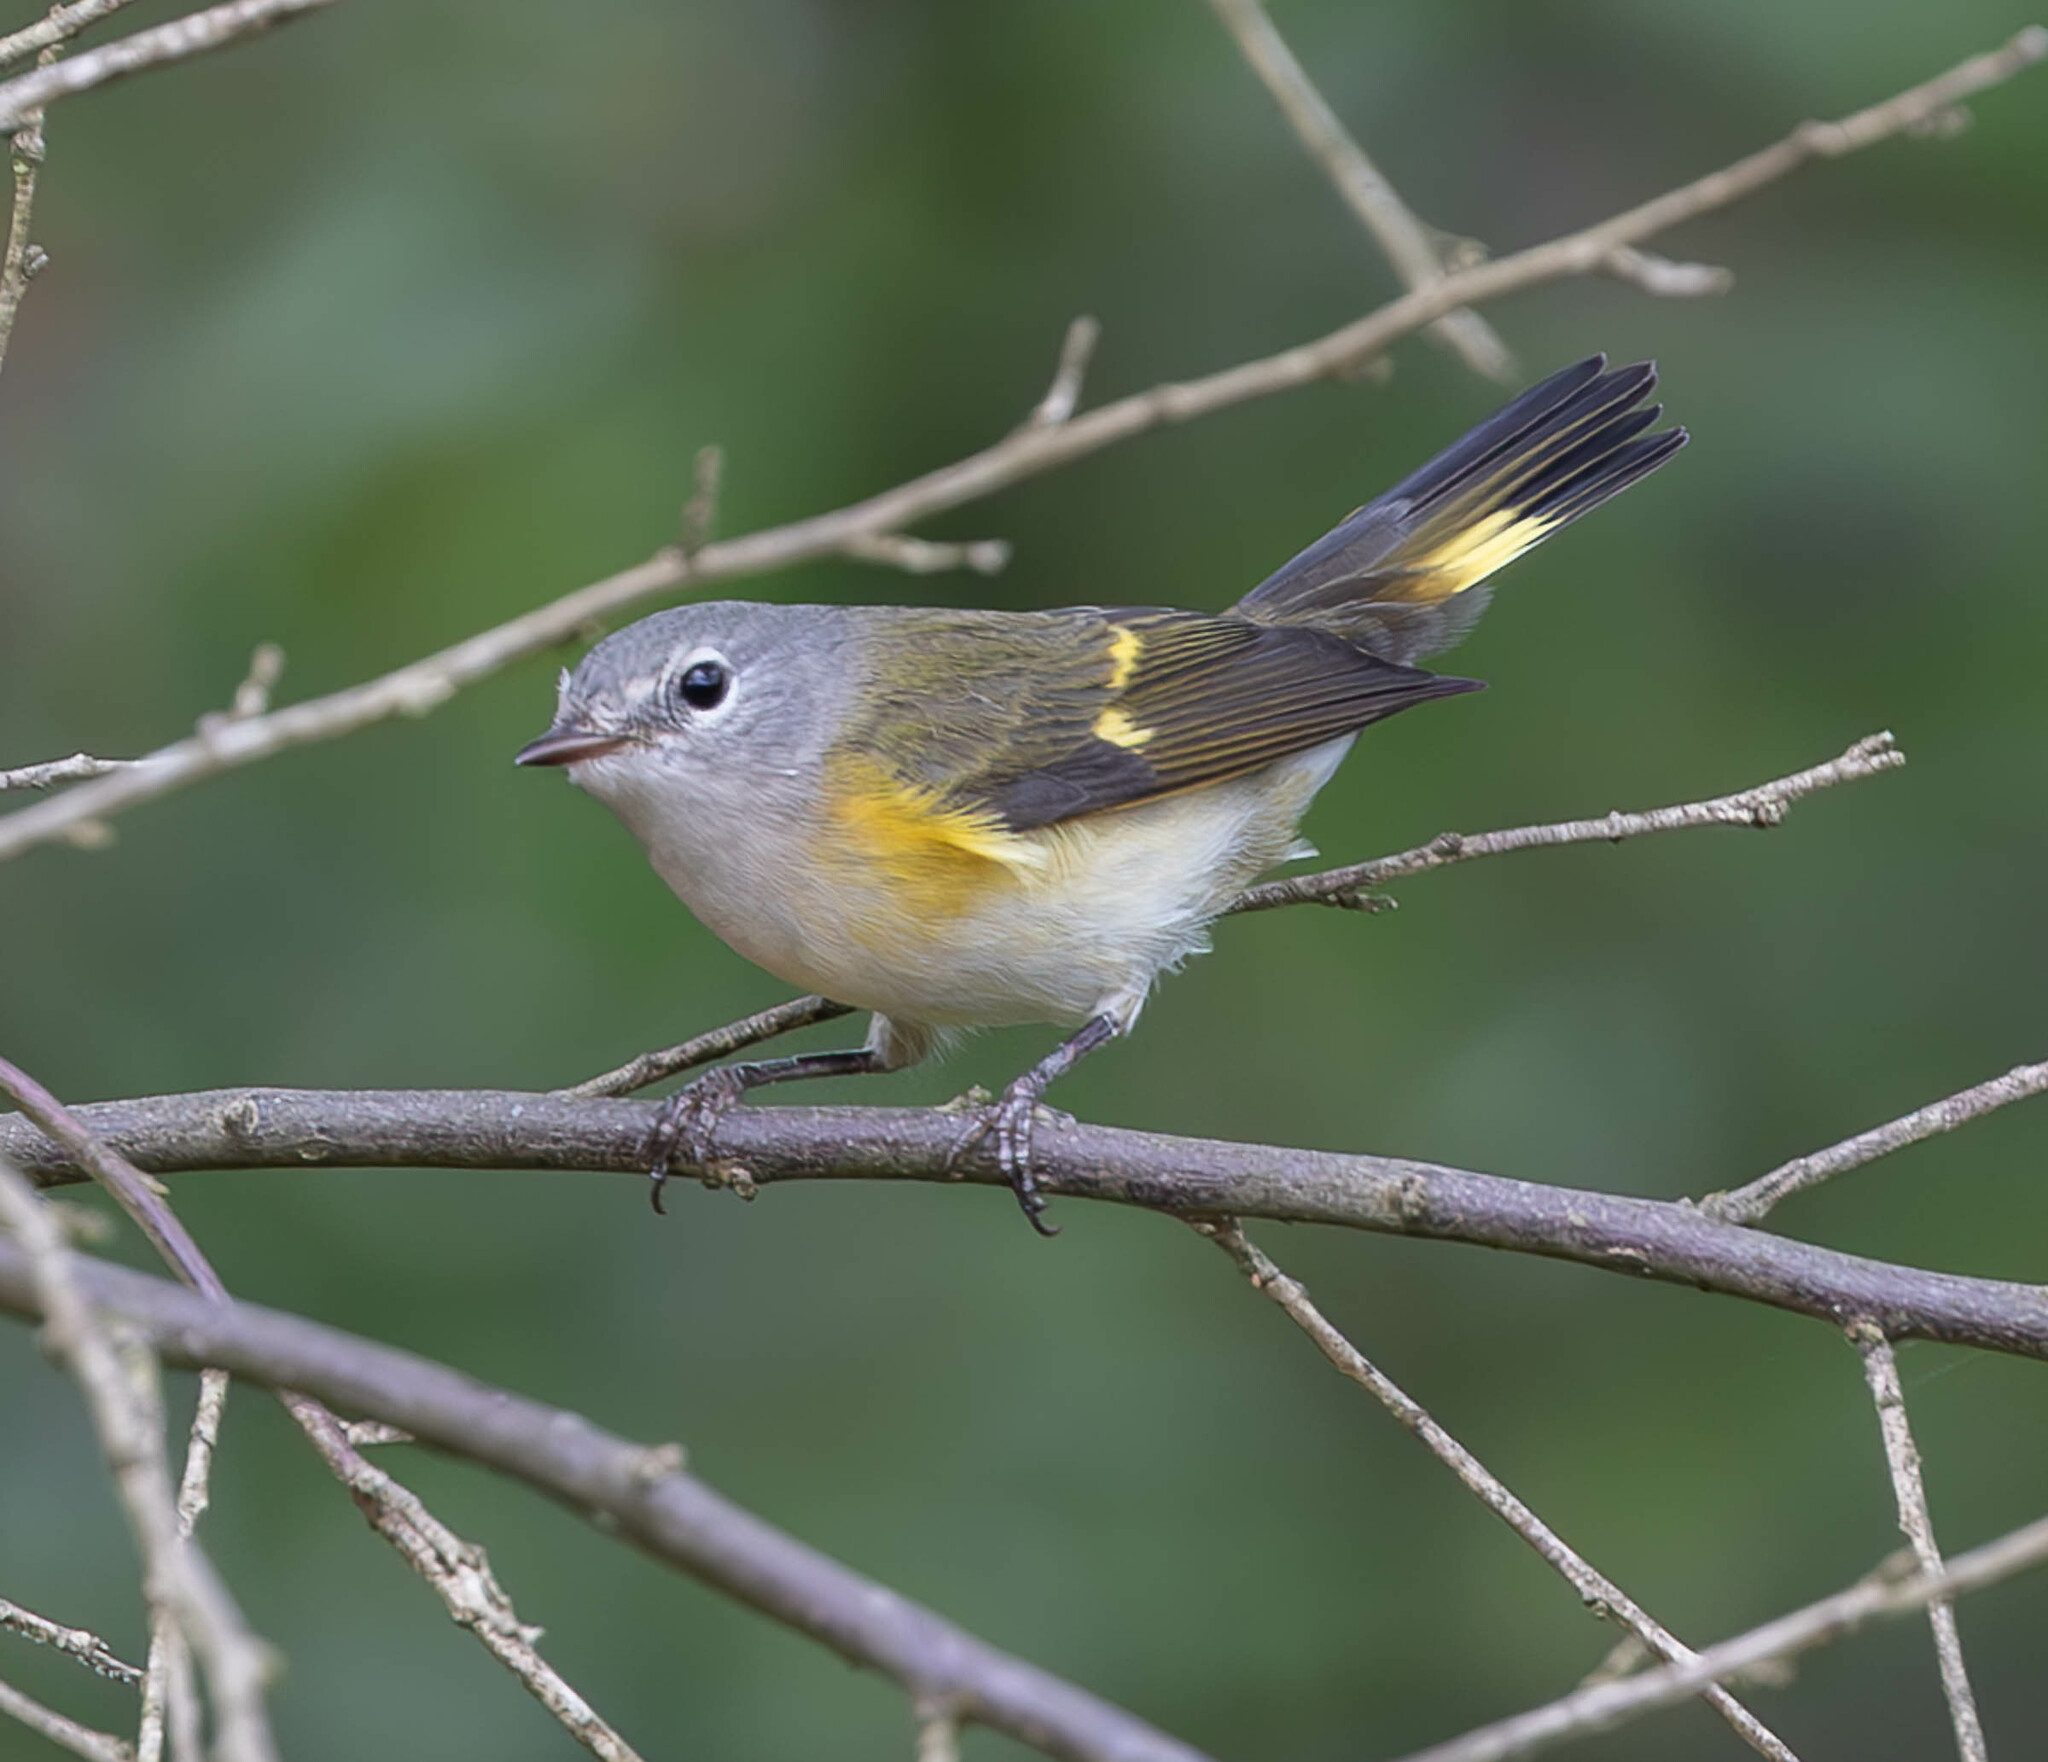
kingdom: Animalia
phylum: Chordata
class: Aves
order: Passeriformes
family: Parulidae
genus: Setophaga
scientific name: Setophaga ruticilla
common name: American redstart
